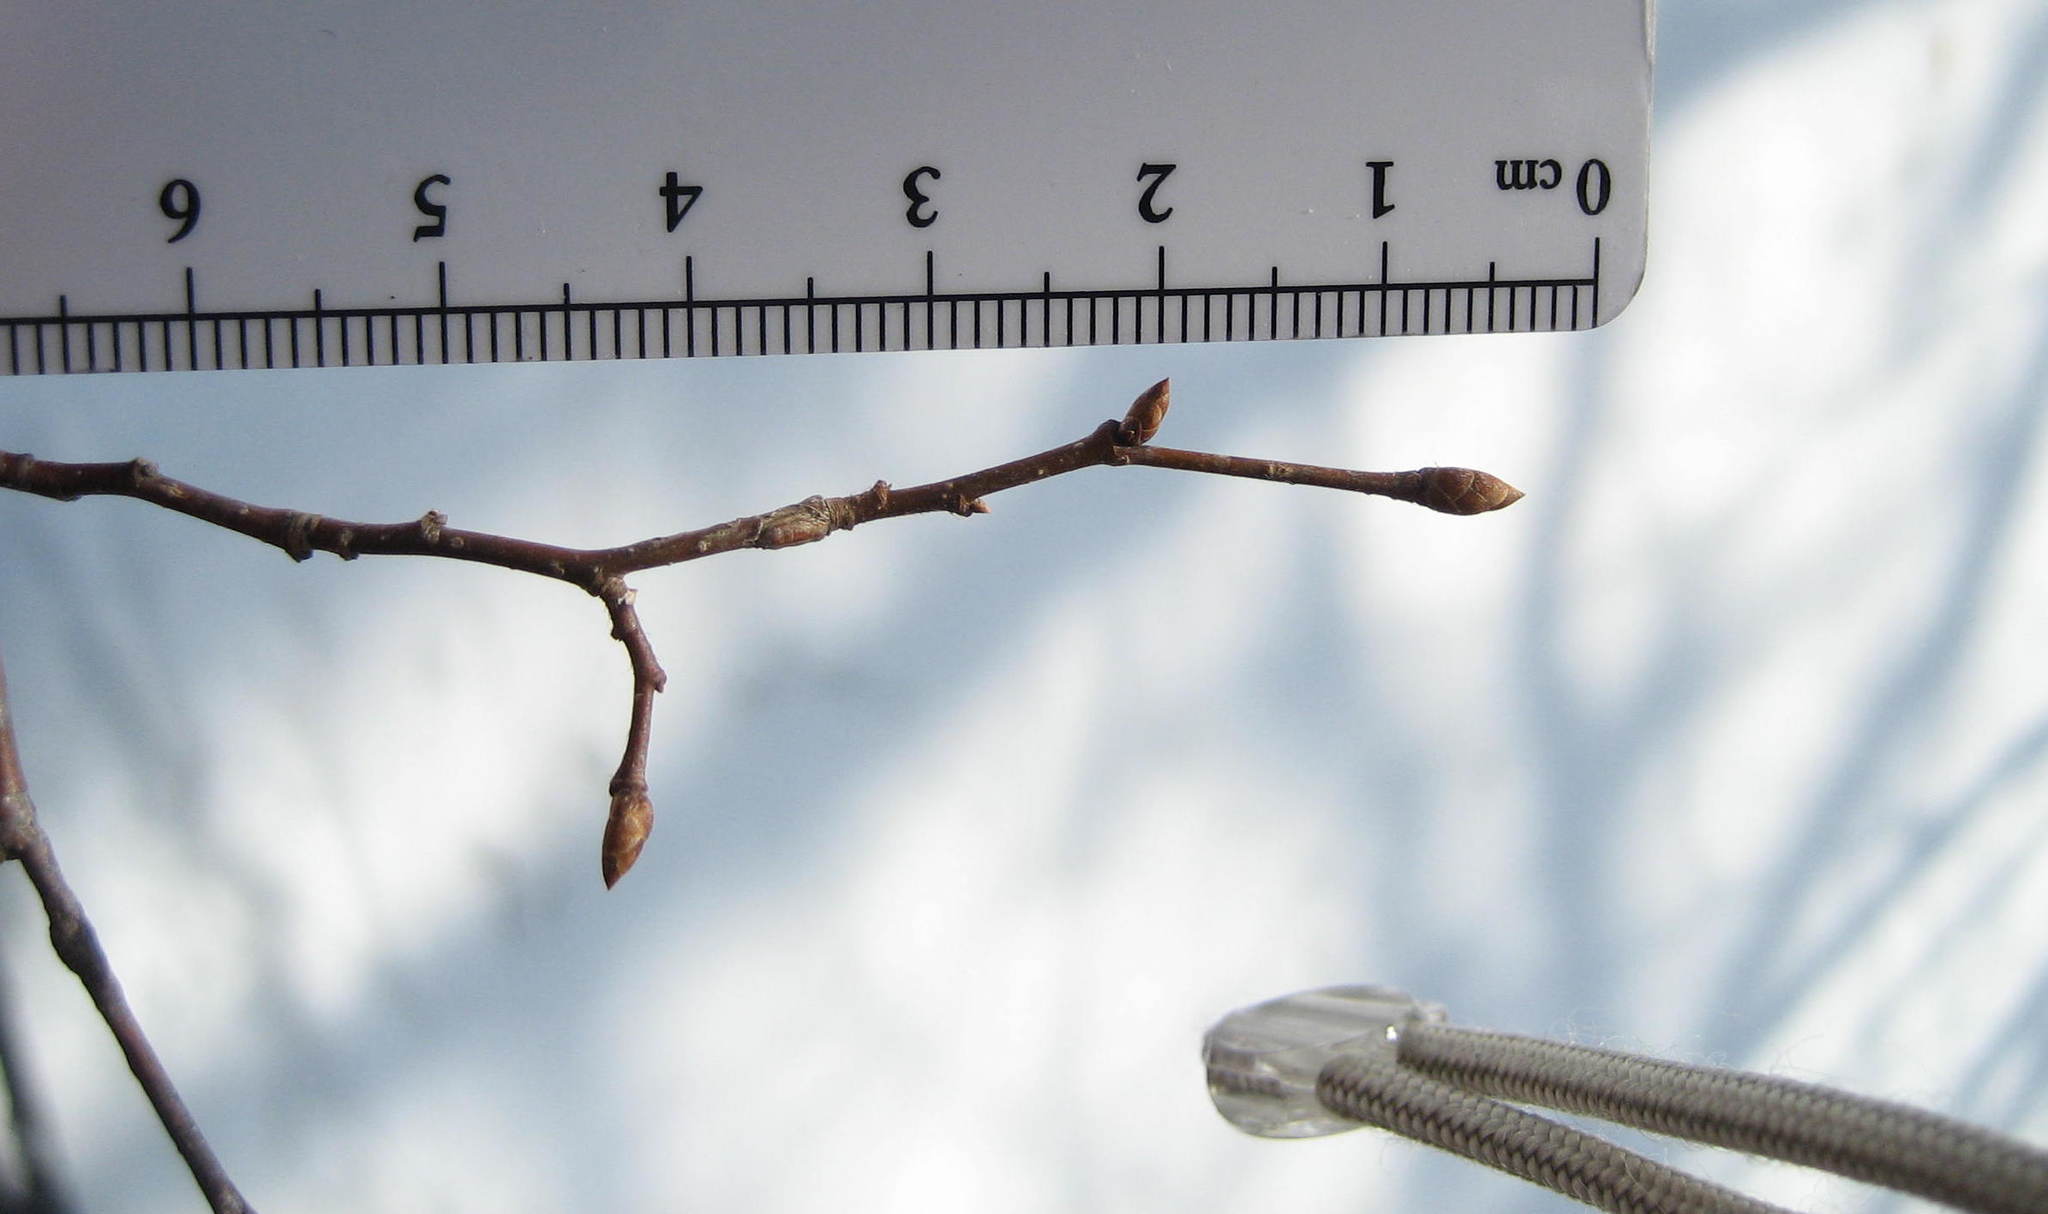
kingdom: Plantae
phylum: Tracheophyta
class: Magnoliopsida
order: Fagales
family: Betulaceae
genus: Ostrya
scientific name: Ostrya virginiana
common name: Ironwood
